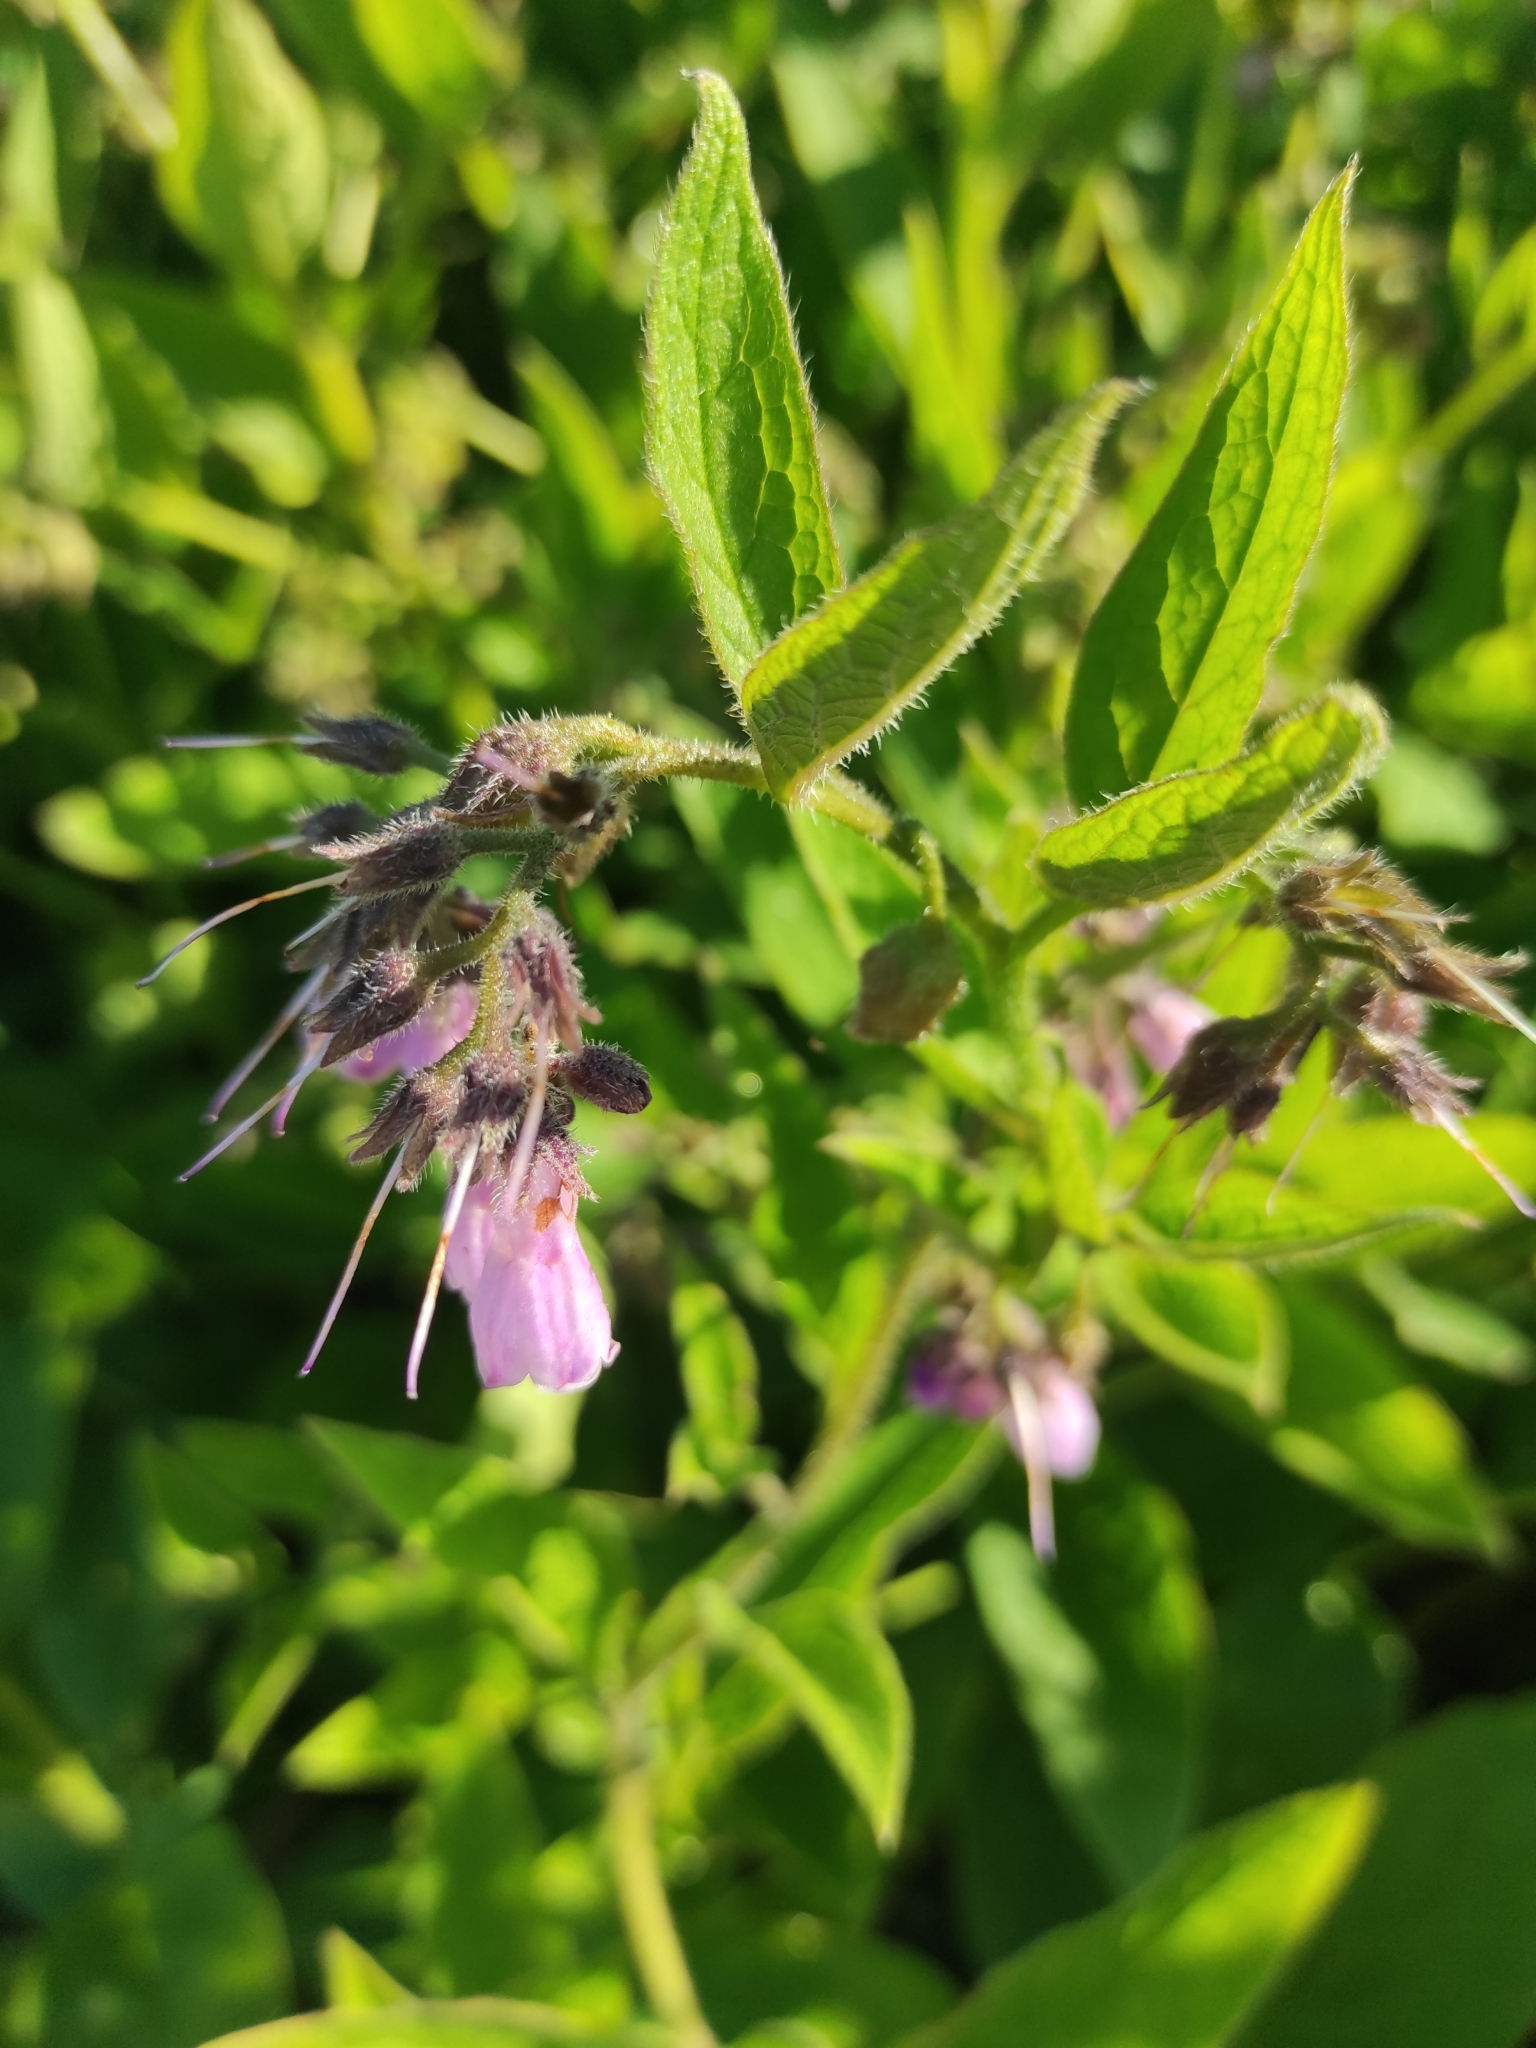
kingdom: Plantae
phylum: Tracheophyta
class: Magnoliopsida
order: Boraginales
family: Boraginaceae
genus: Symphytum
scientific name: Symphytum officinale
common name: Common comfrey
